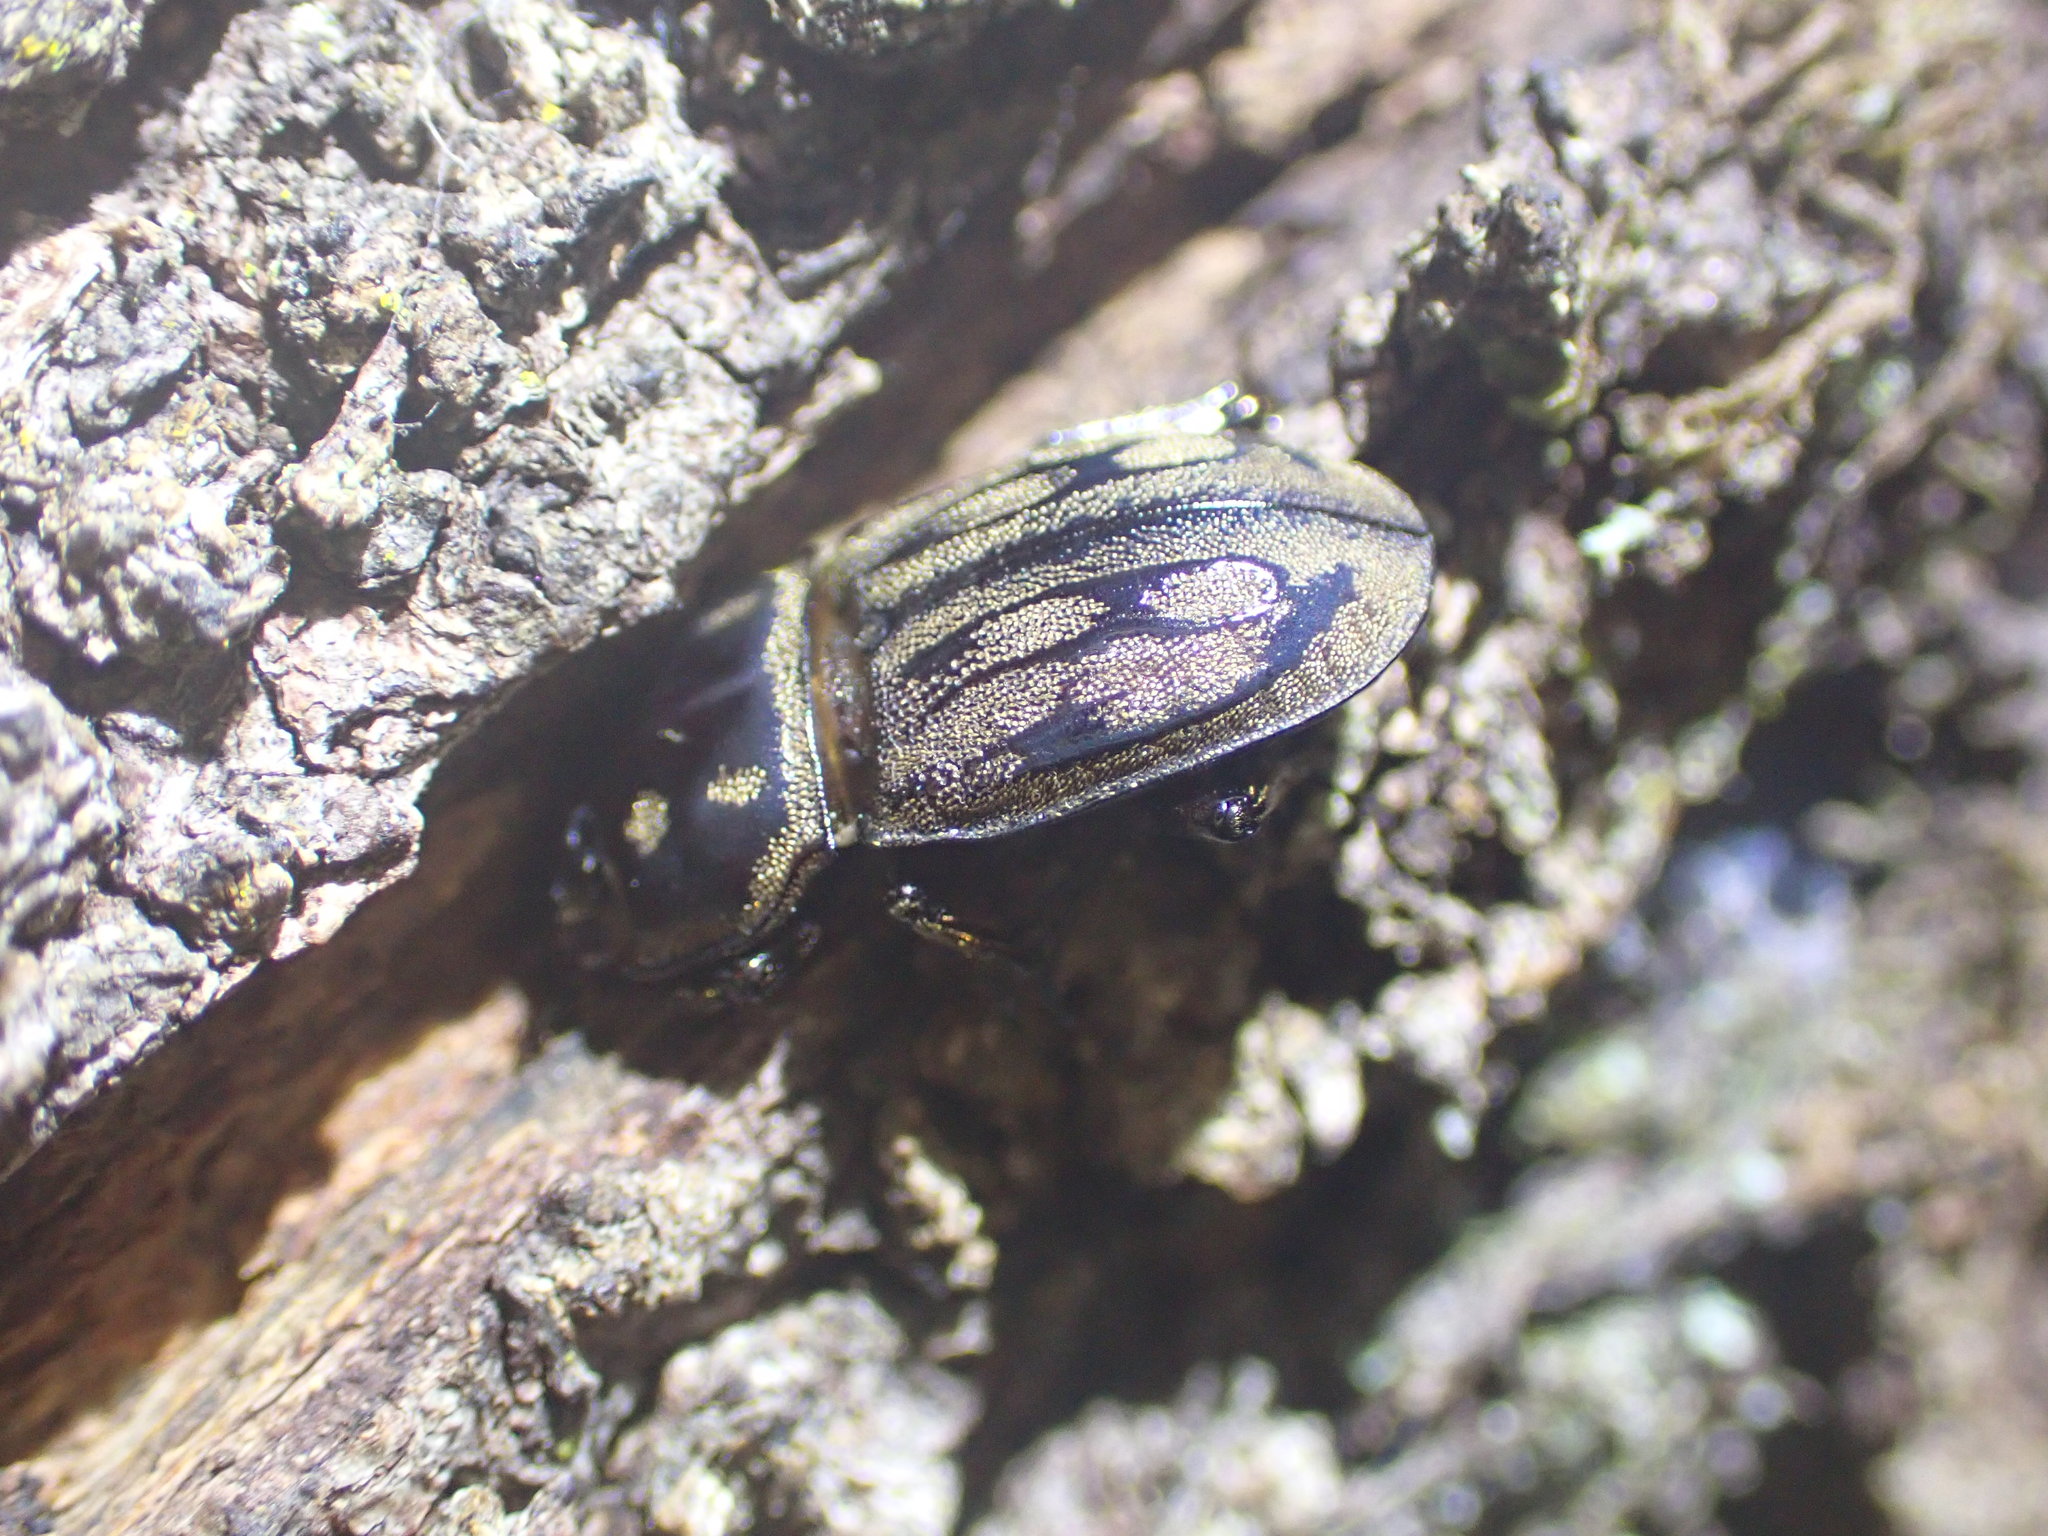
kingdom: Animalia
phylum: Arthropoda
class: Insecta
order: Coleoptera
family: Lucanidae
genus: Paralissotes
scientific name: Paralissotes reticulatus
